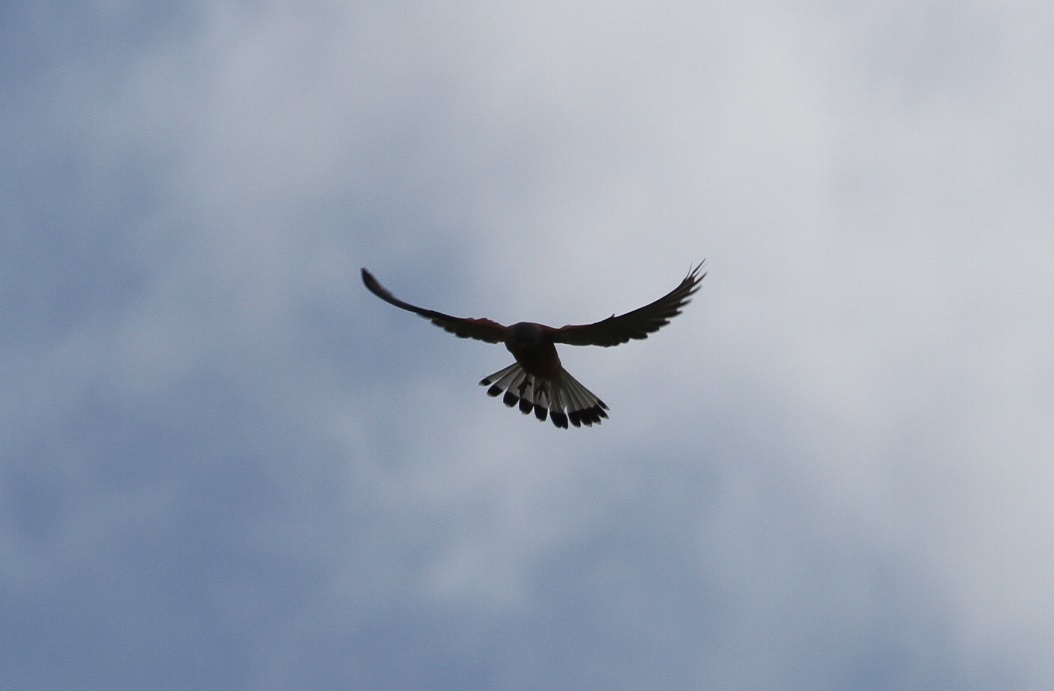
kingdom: Animalia
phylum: Chordata
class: Aves
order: Falconiformes
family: Falconidae
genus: Falco
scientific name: Falco tinnunculus
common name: Common kestrel
